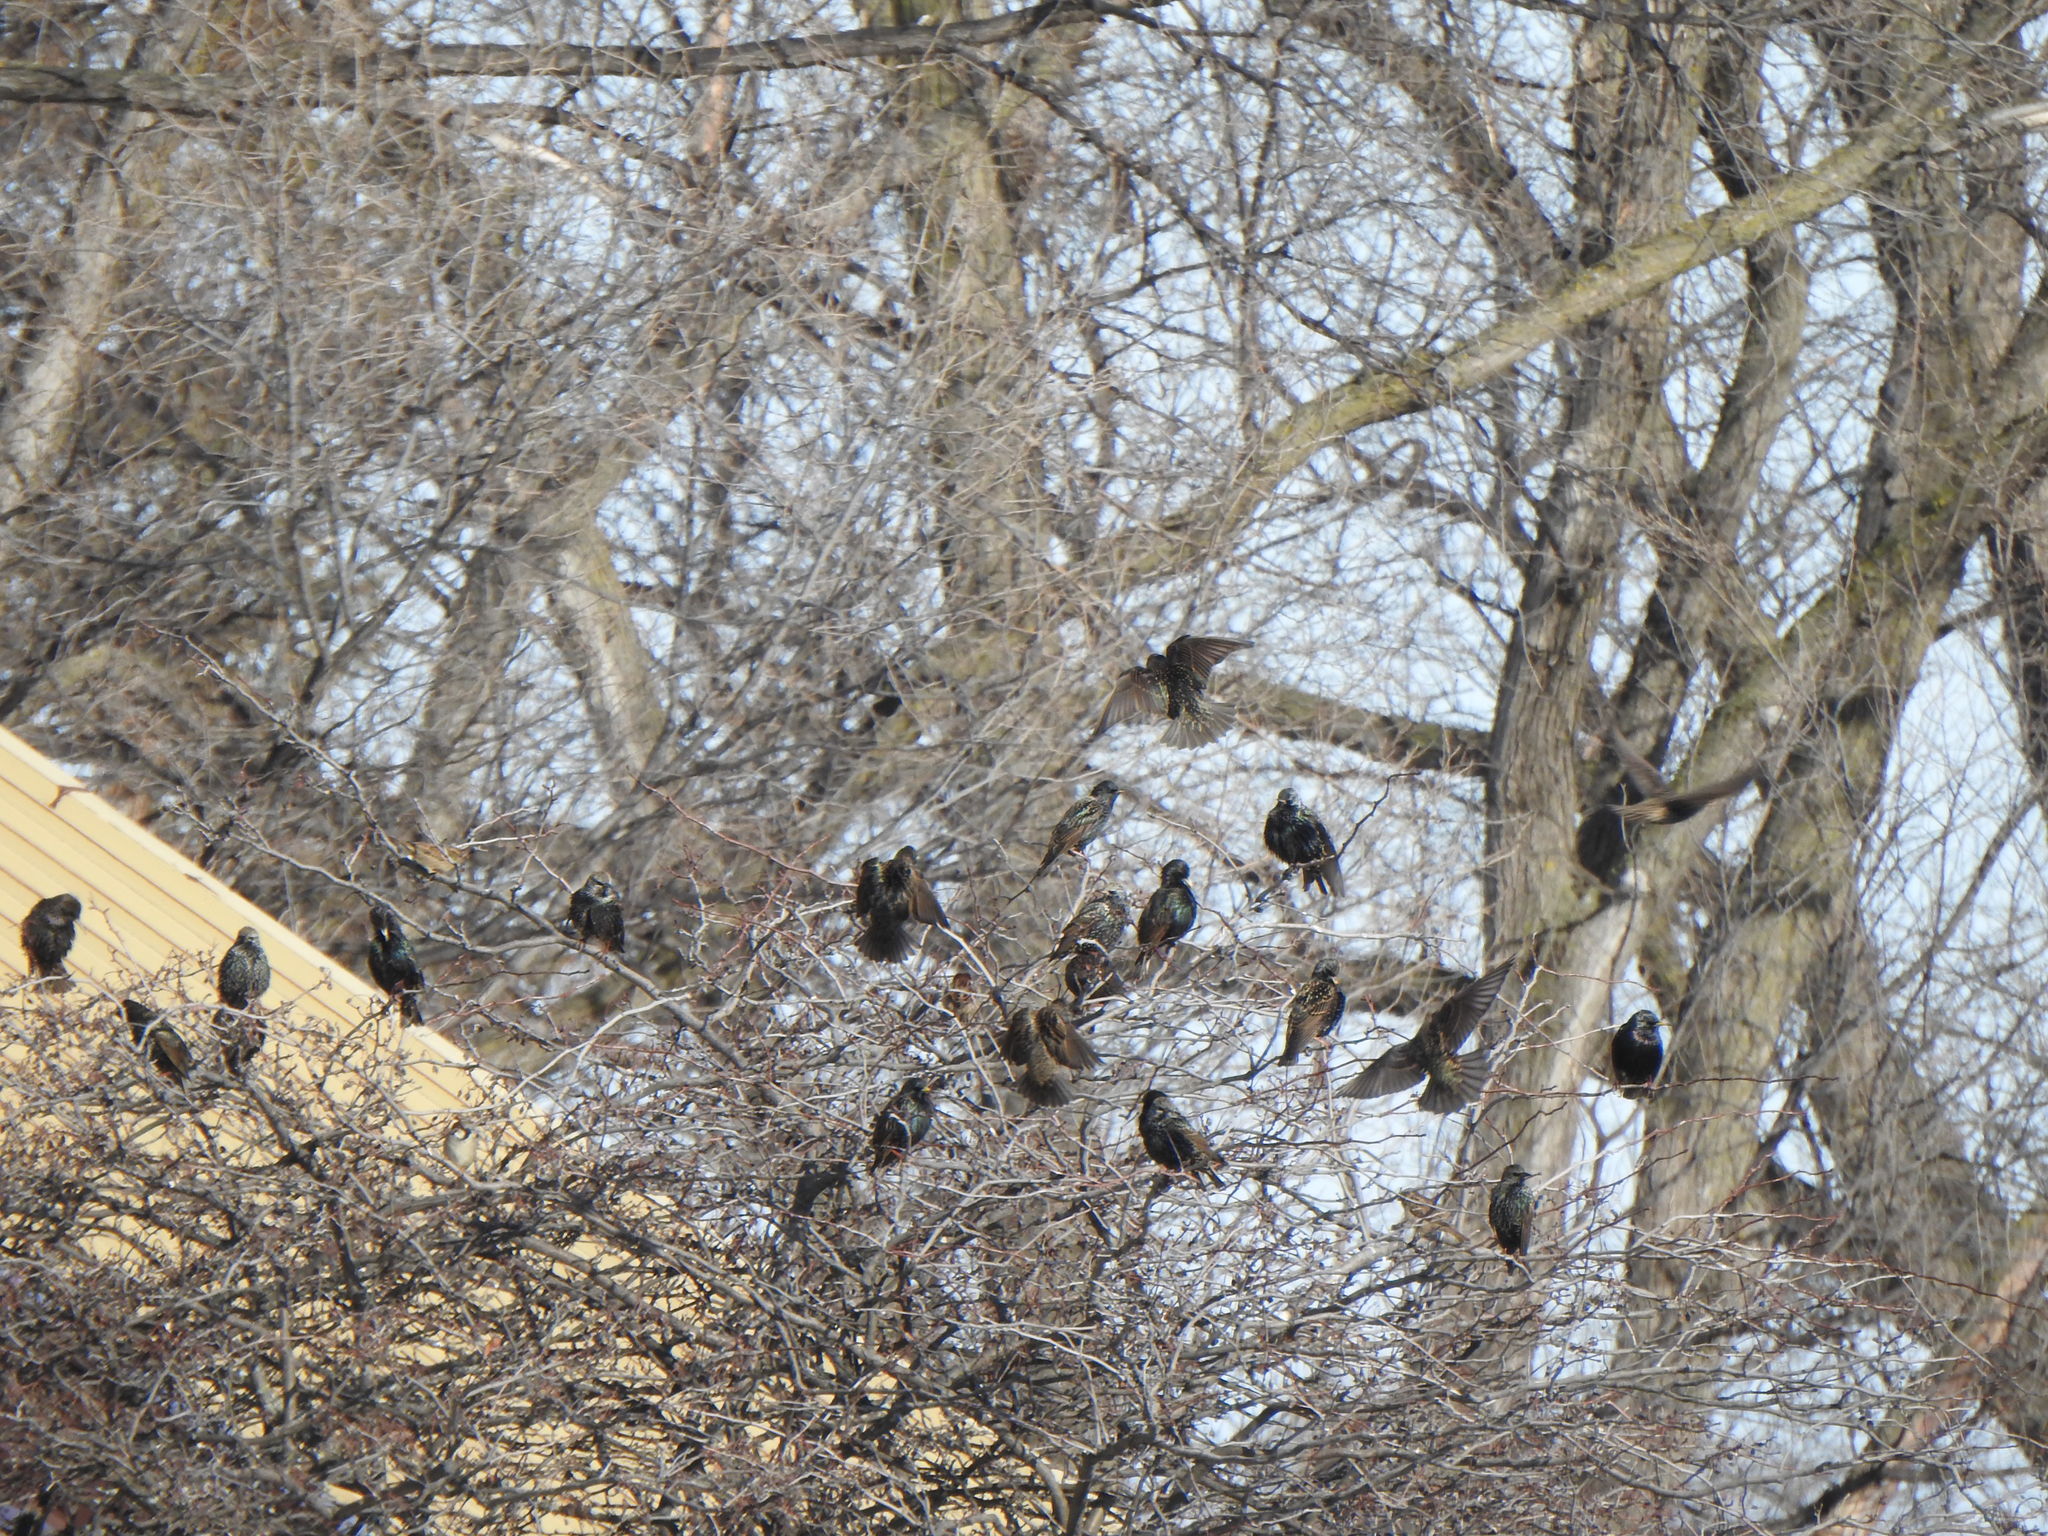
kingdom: Animalia
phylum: Chordata
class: Aves
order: Passeriformes
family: Sturnidae
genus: Sturnus
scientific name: Sturnus vulgaris
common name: Common starling
